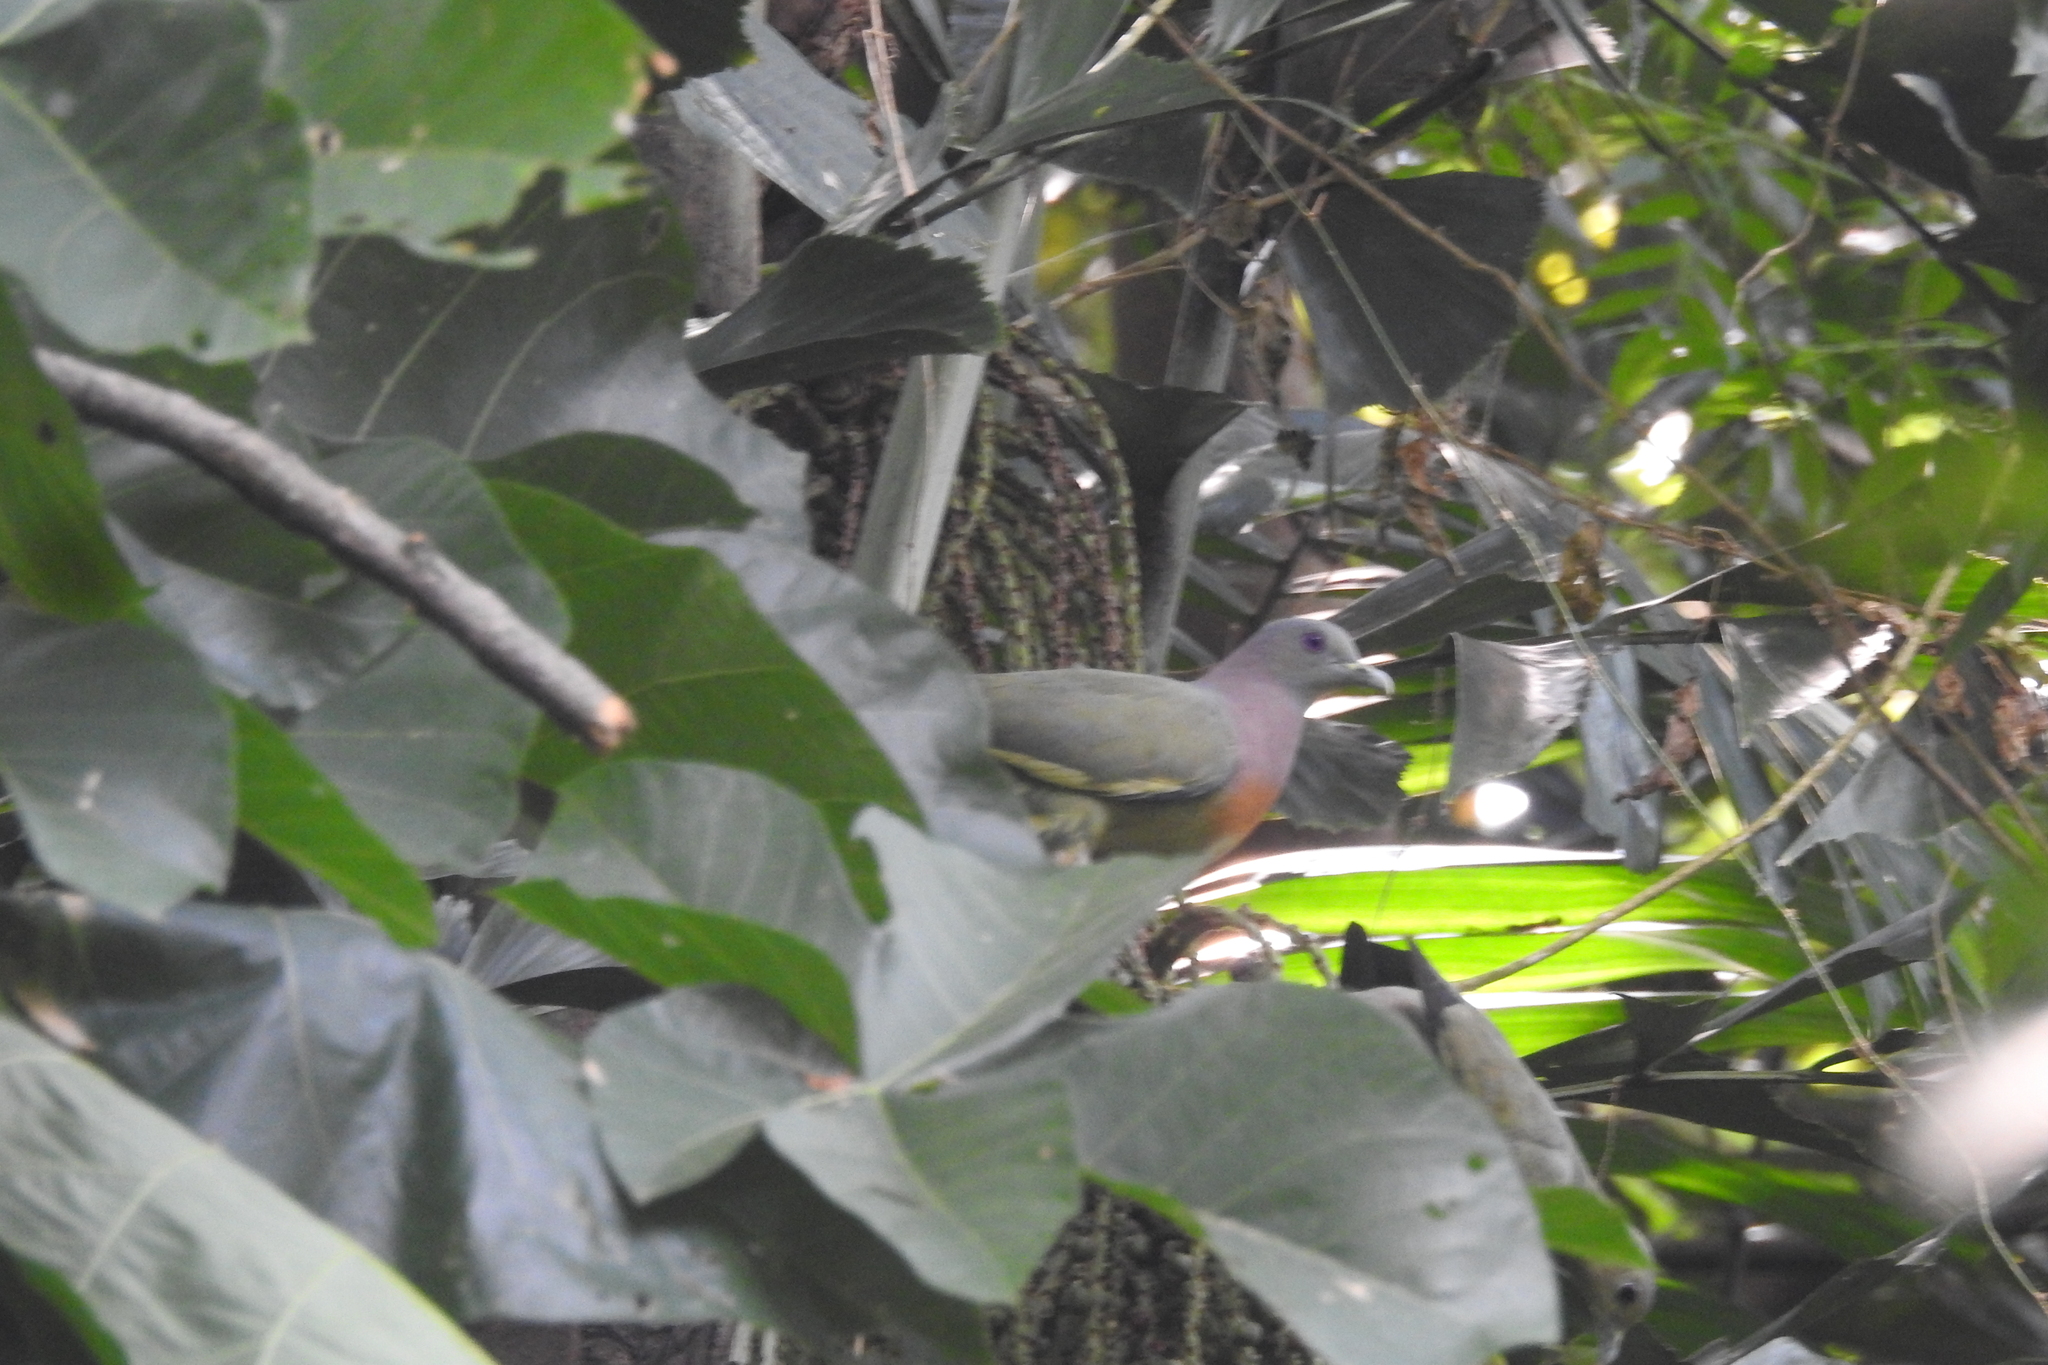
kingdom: Animalia
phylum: Chordata
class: Aves
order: Columbiformes
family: Columbidae
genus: Treron
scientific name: Treron vernans
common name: Pink-necked green pigeon
